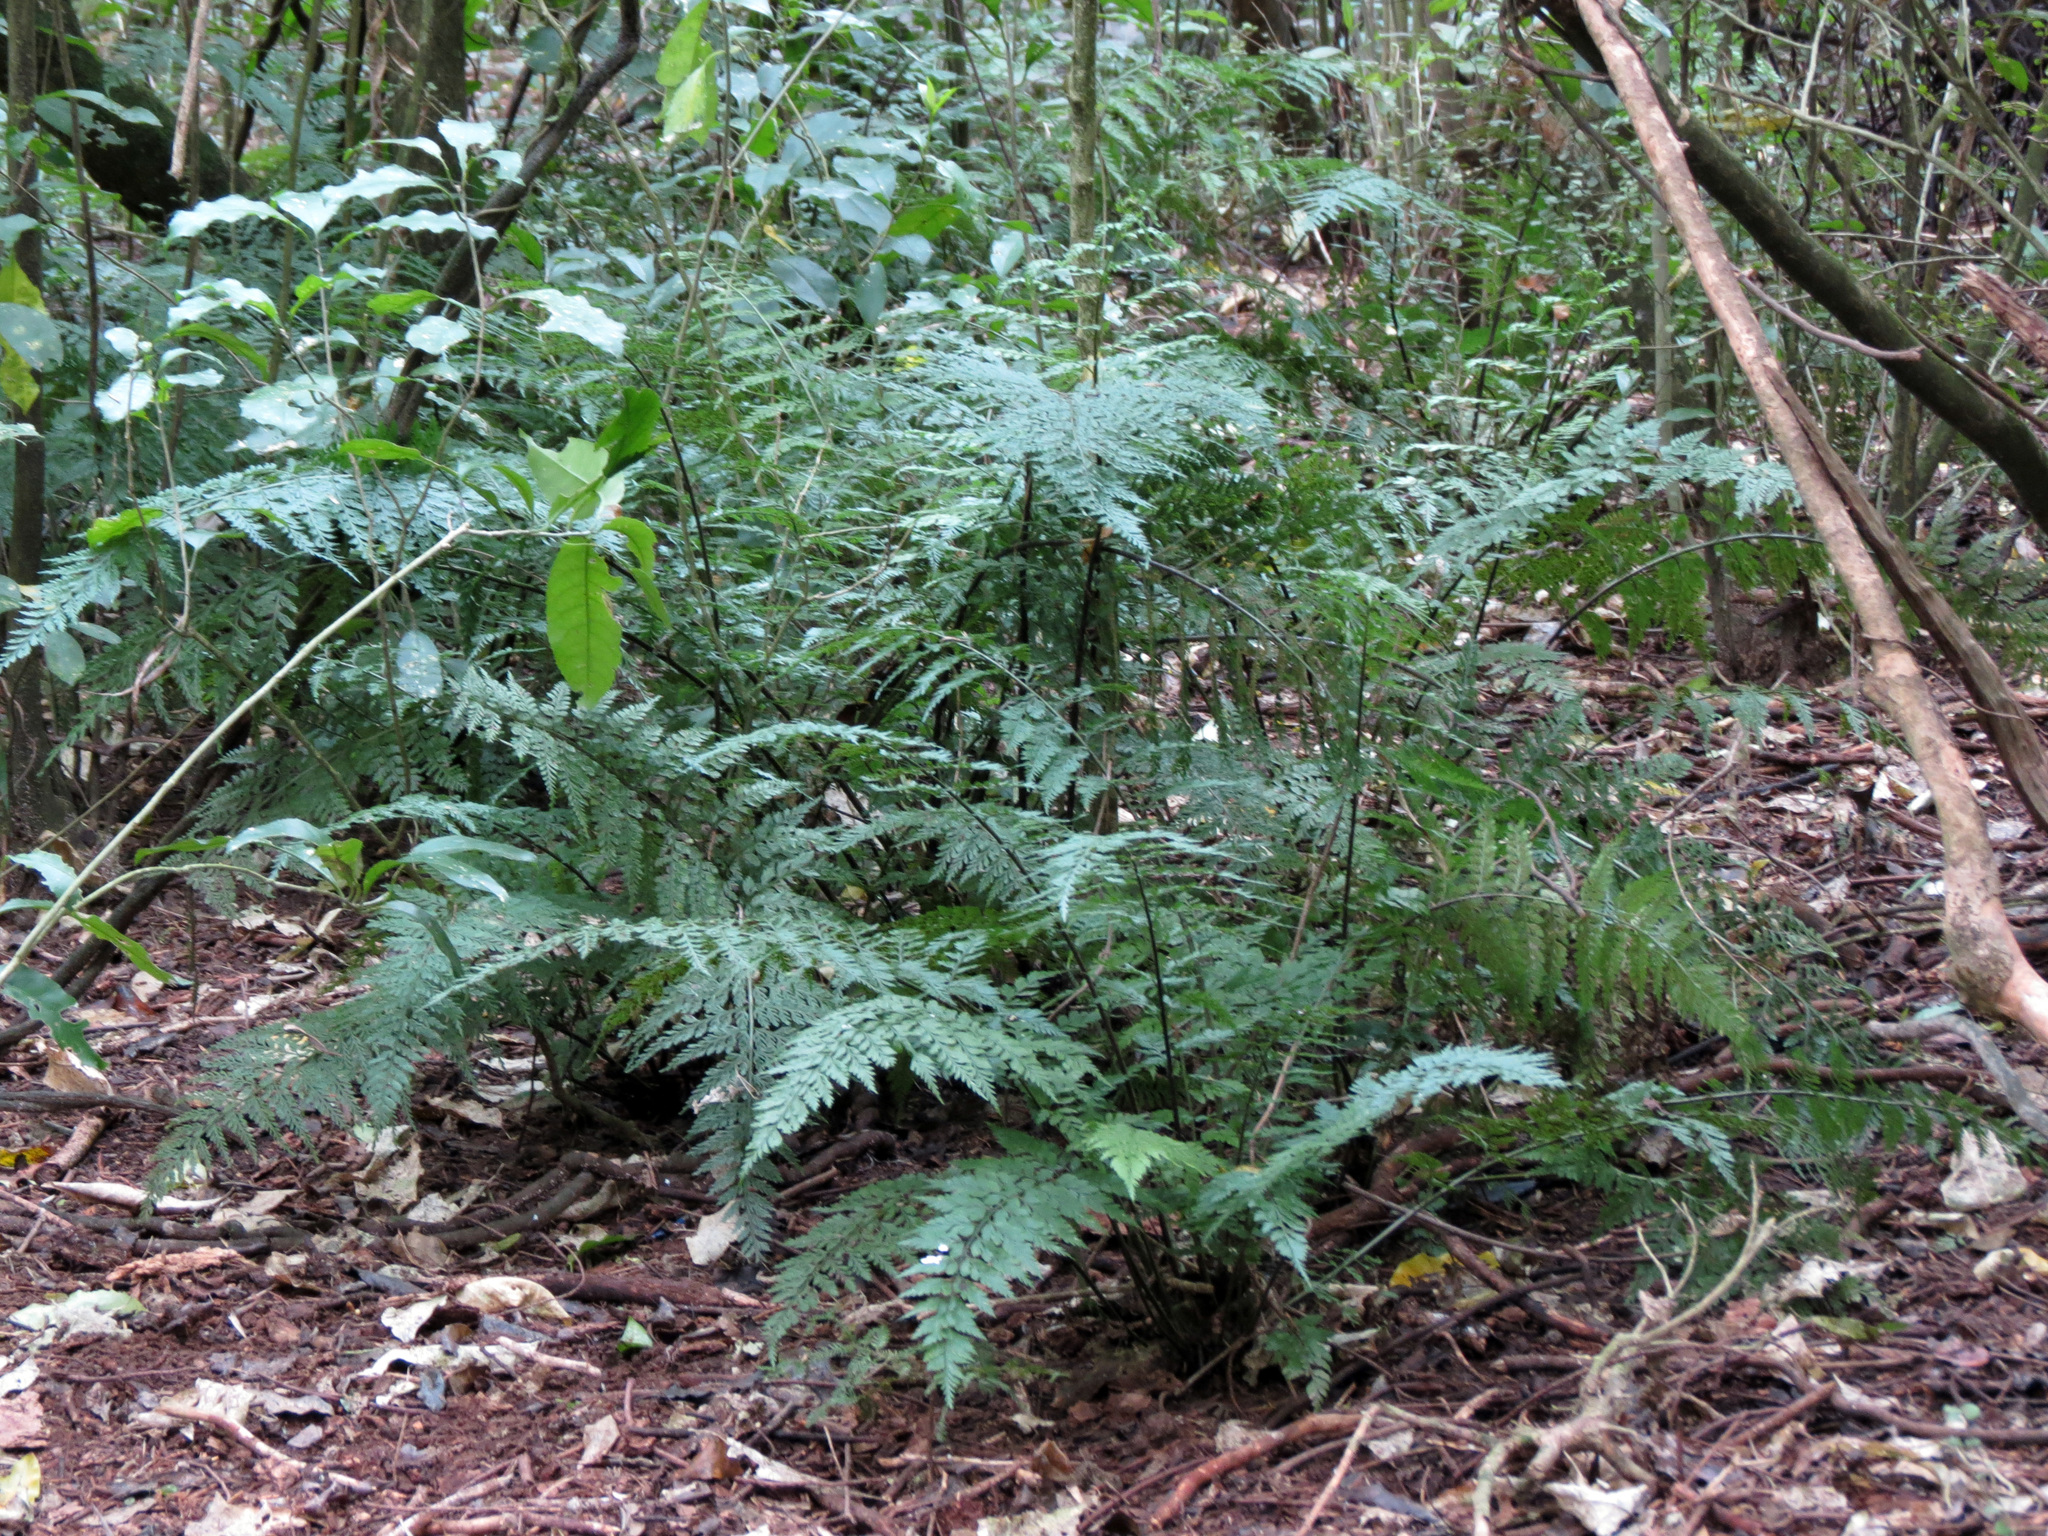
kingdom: Plantae
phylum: Tracheophyta
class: Polypodiopsida
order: Polypodiales
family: Aspleniaceae
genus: Asplenium
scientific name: Asplenium
